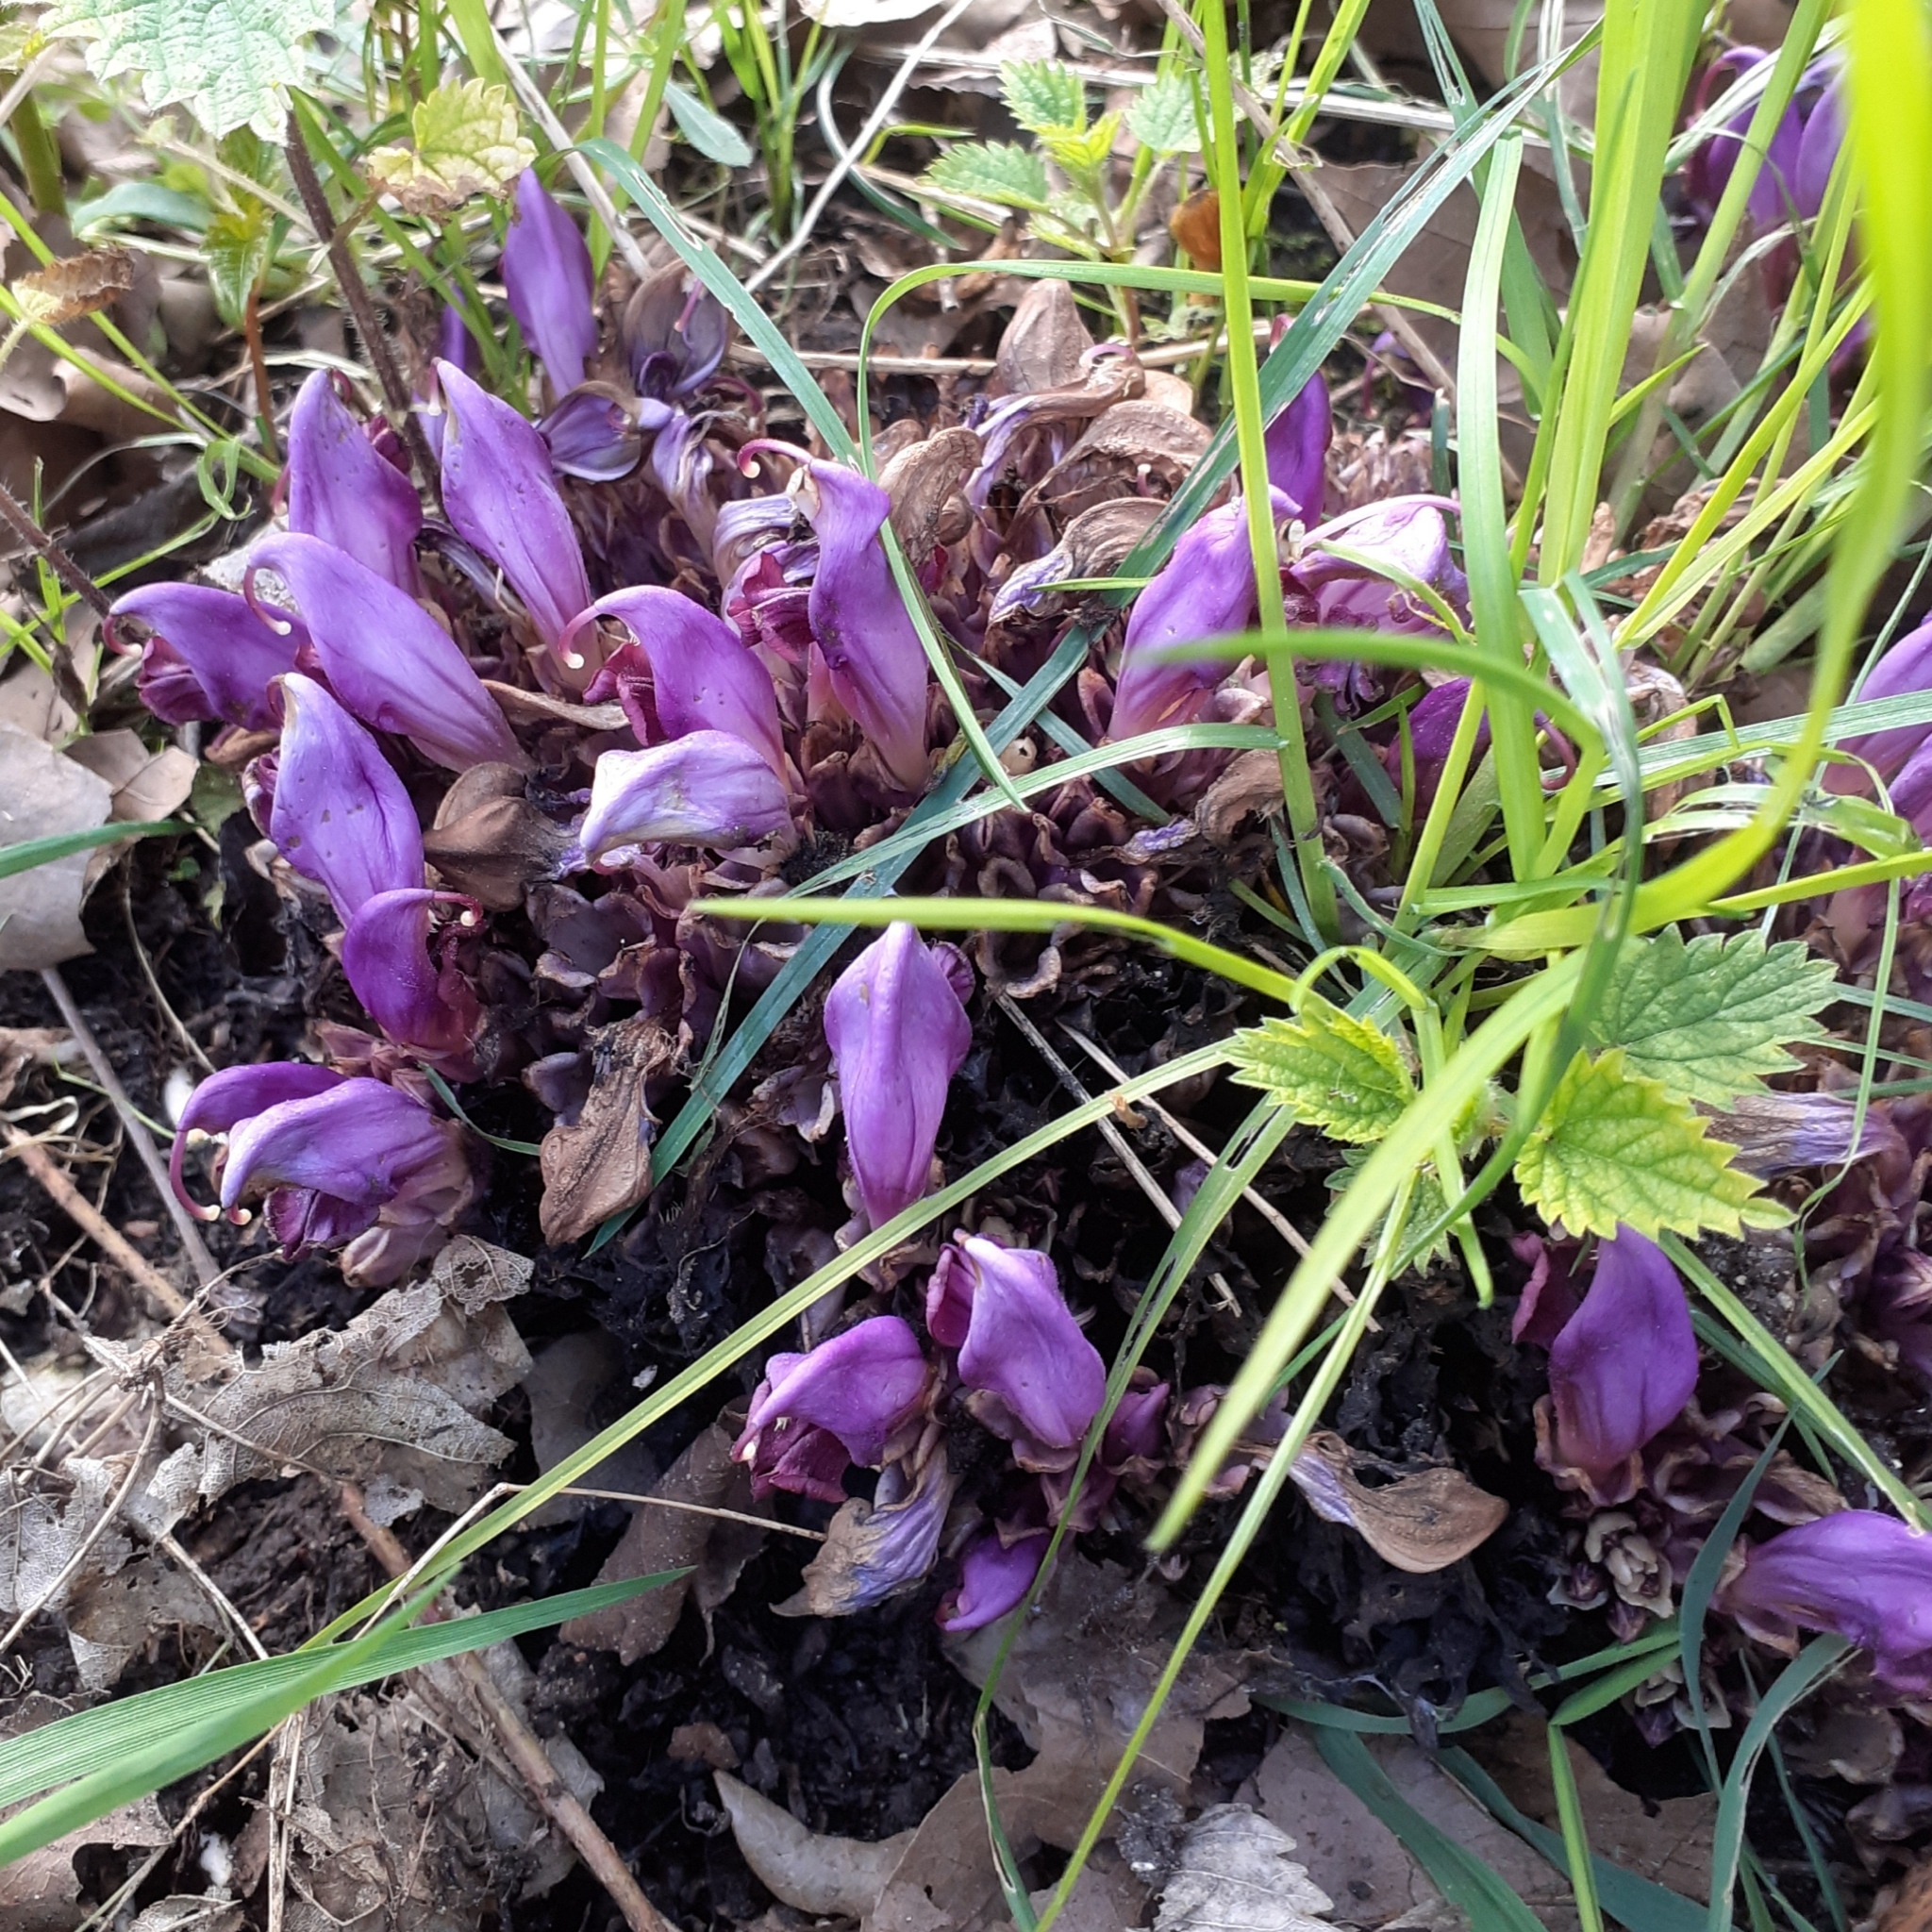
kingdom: Plantae
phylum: Tracheophyta
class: Magnoliopsida
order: Lamiales
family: Orobanchaceae
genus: Lathraea
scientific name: Lathraea clandestina
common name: Purple toothwort
